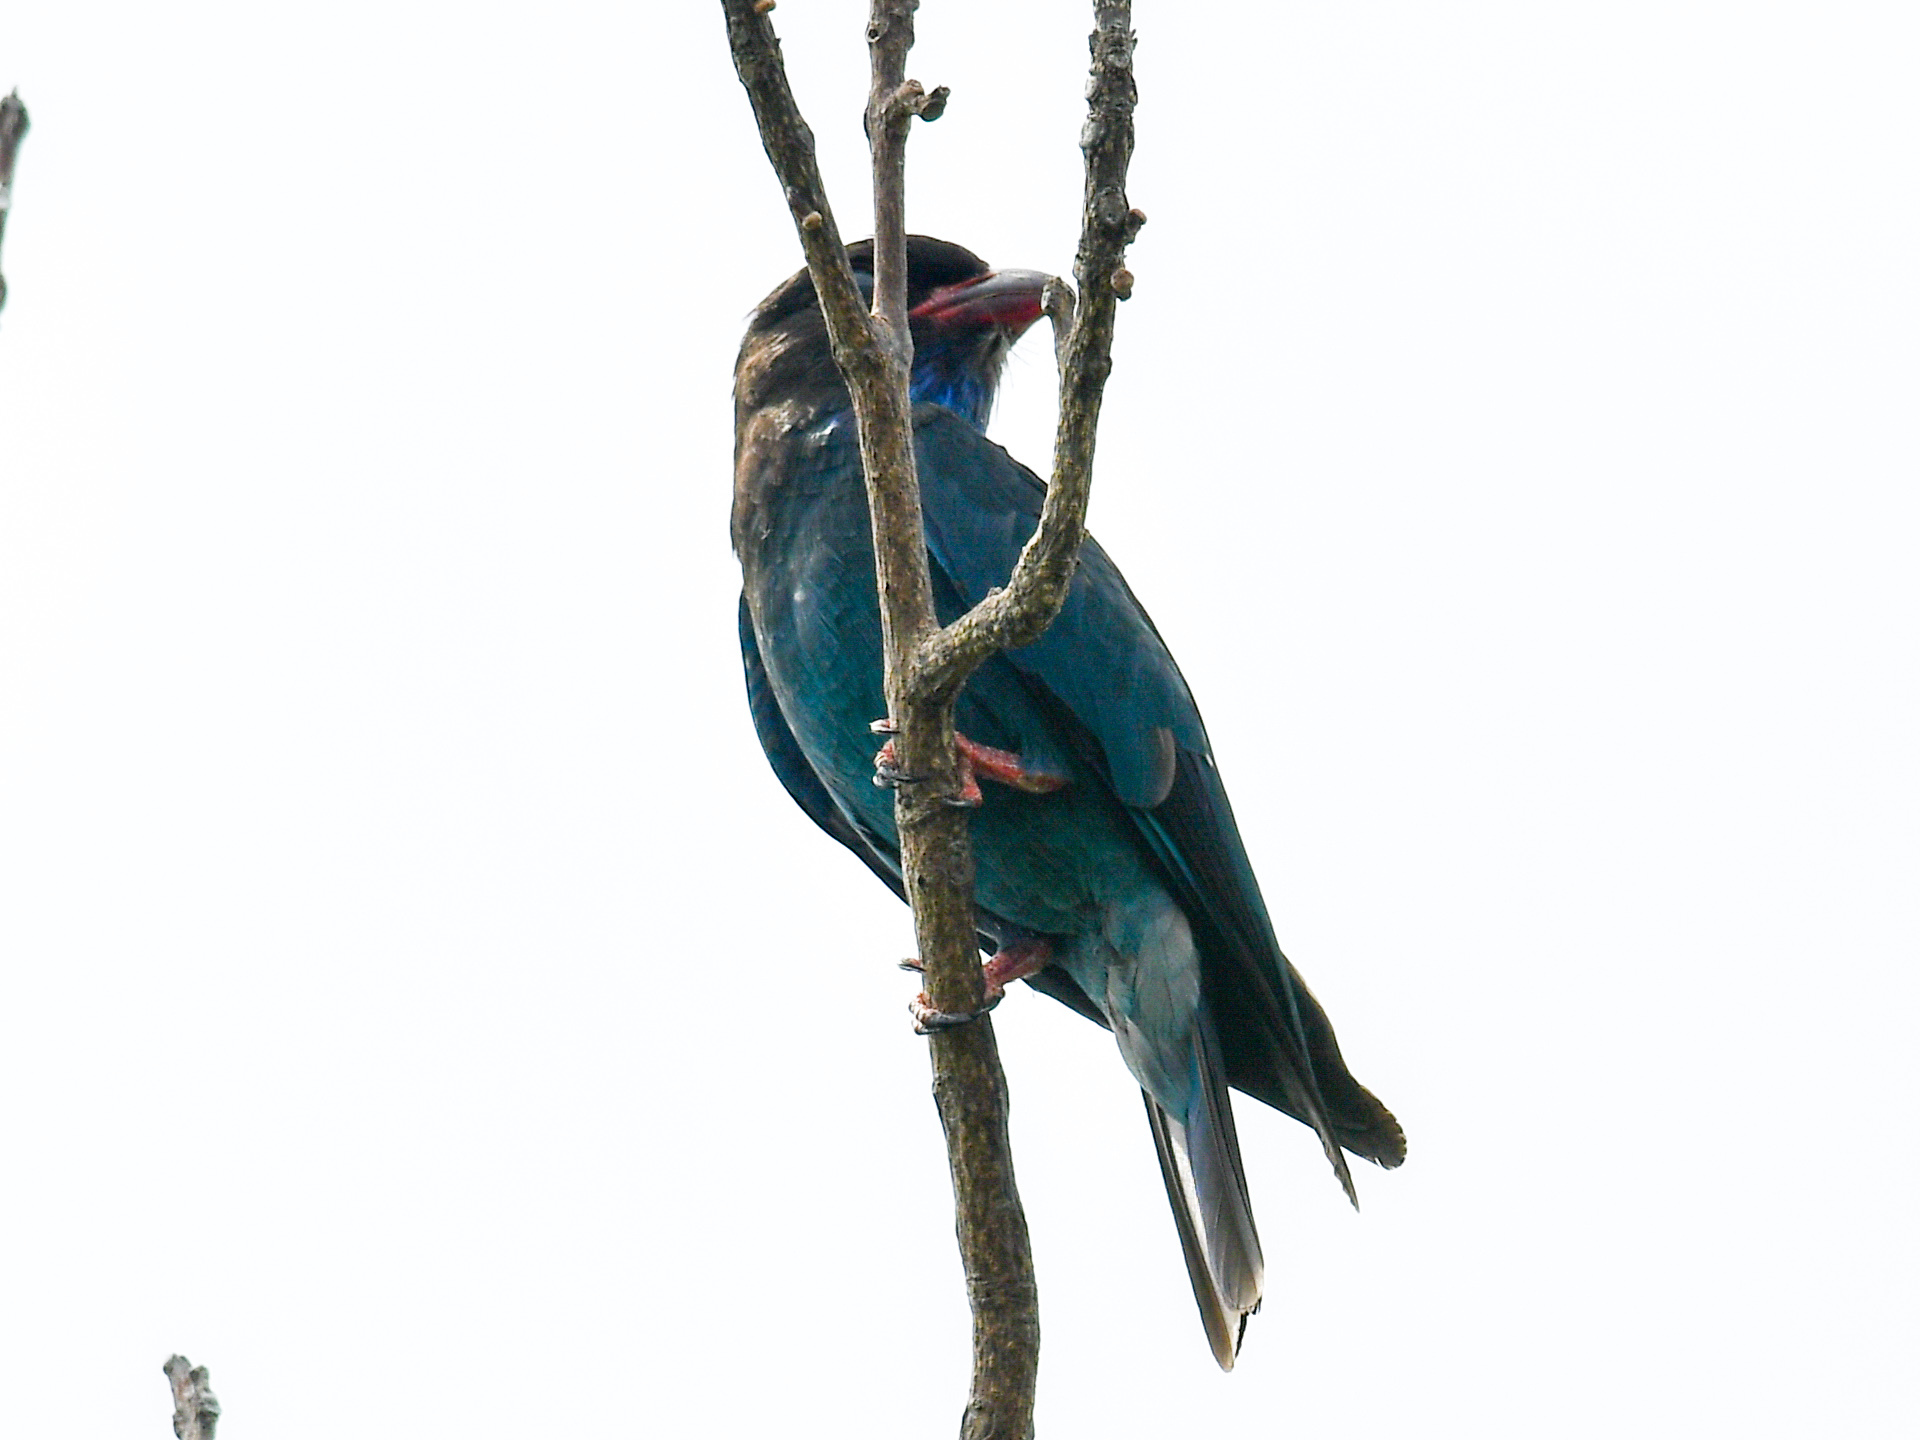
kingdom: Animalia
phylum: Chordata
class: Aves
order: Coraciiformes
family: Coraciidae
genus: Eurystomus
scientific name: Eurystomus orientalis
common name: Oriental dollarbird
